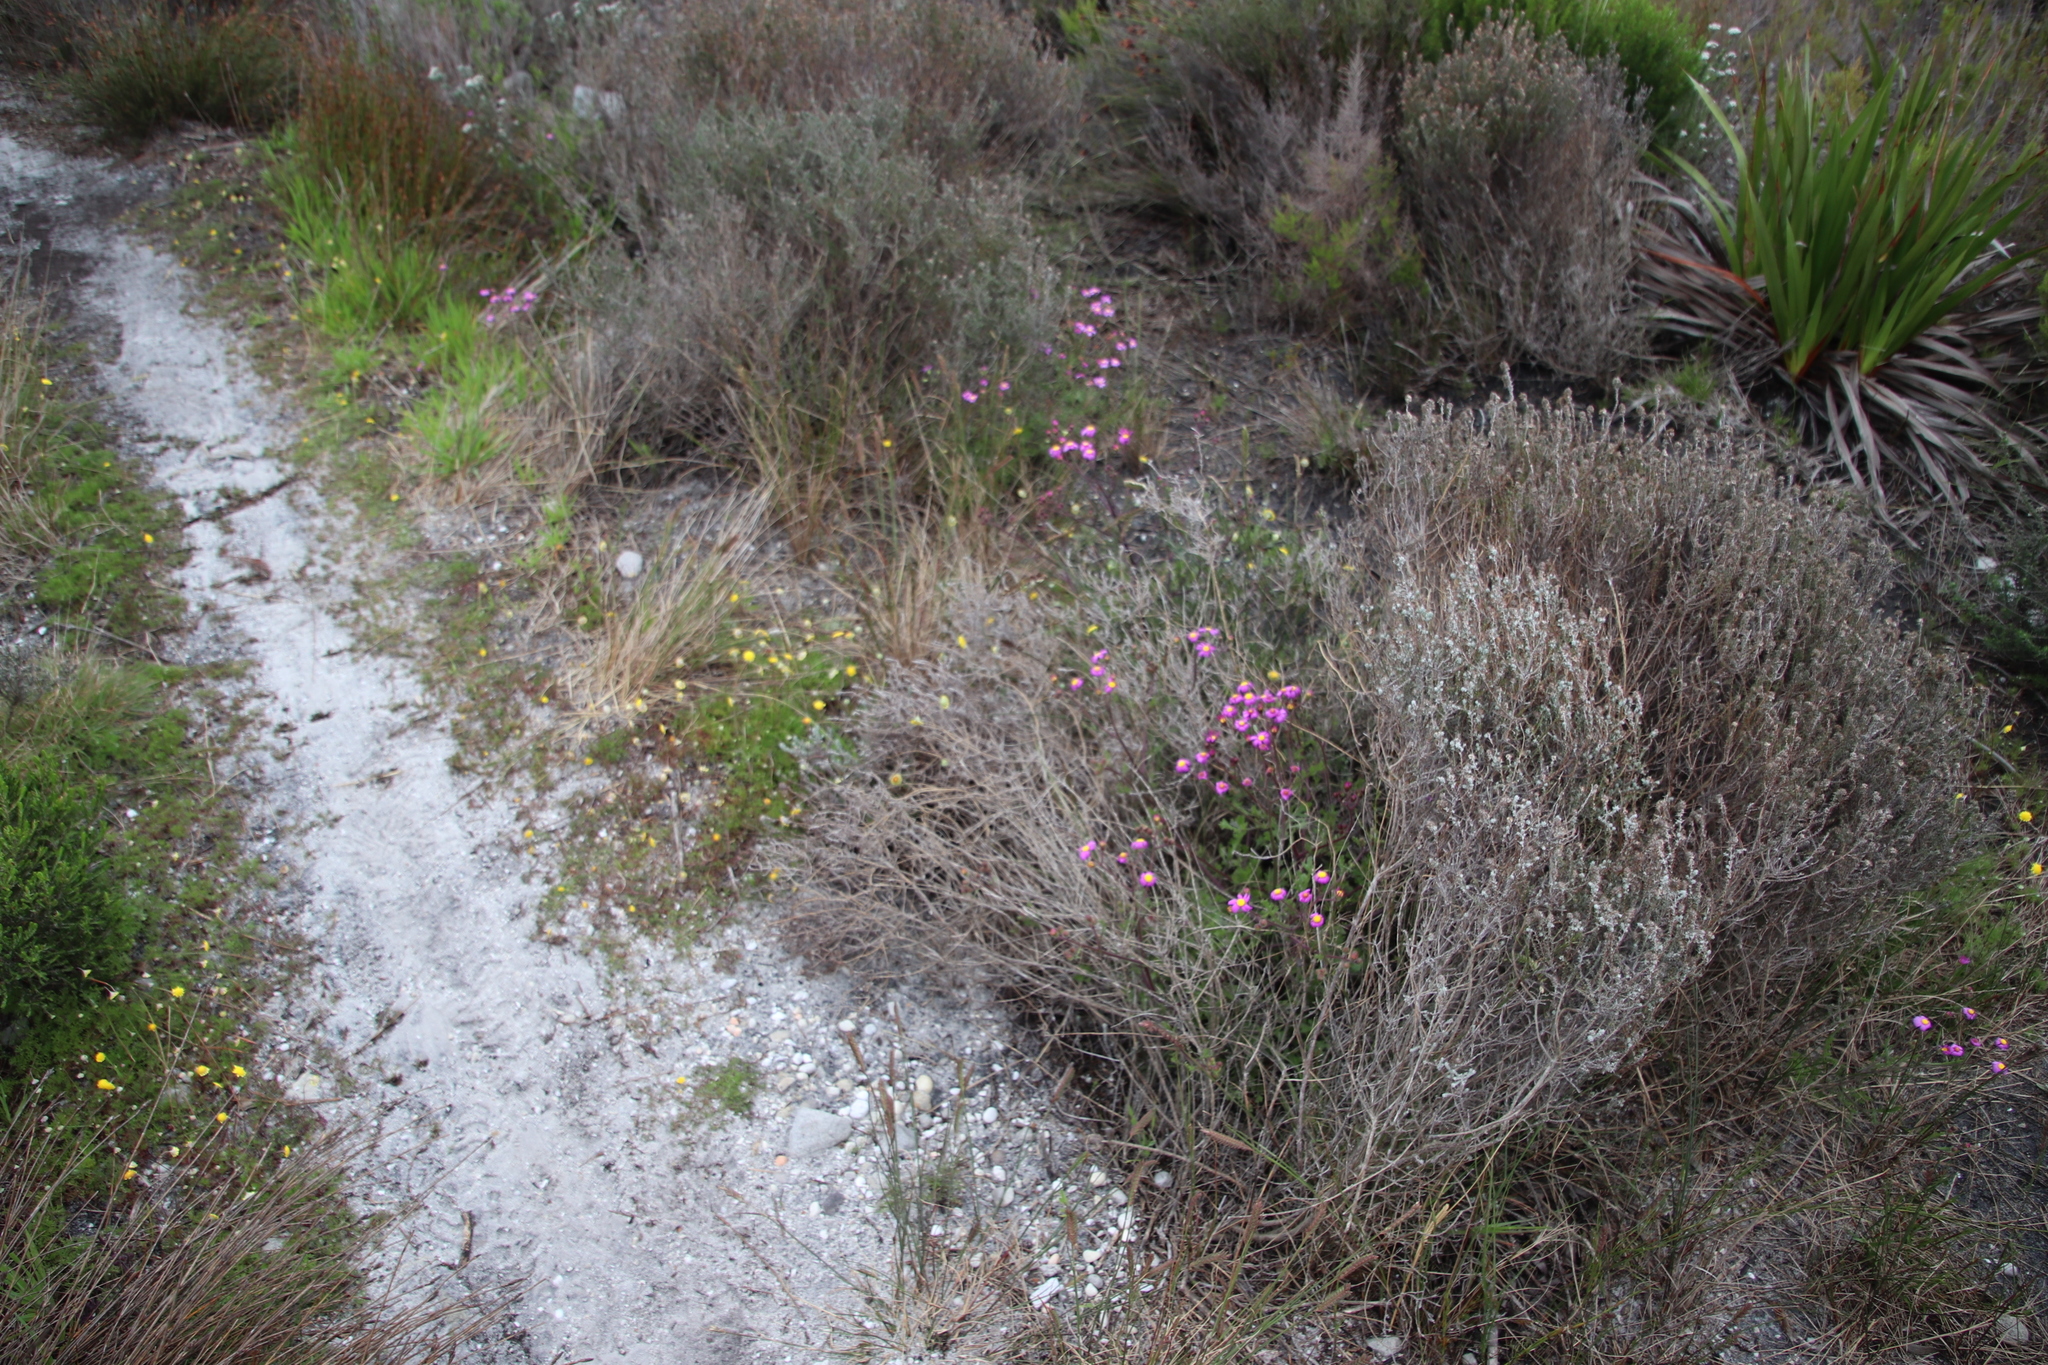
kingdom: Plantae
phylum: Tracheophyta
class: Magnoliopsida
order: Asterales
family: Asteraceae
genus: Cotula
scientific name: Cotula pruinosa
